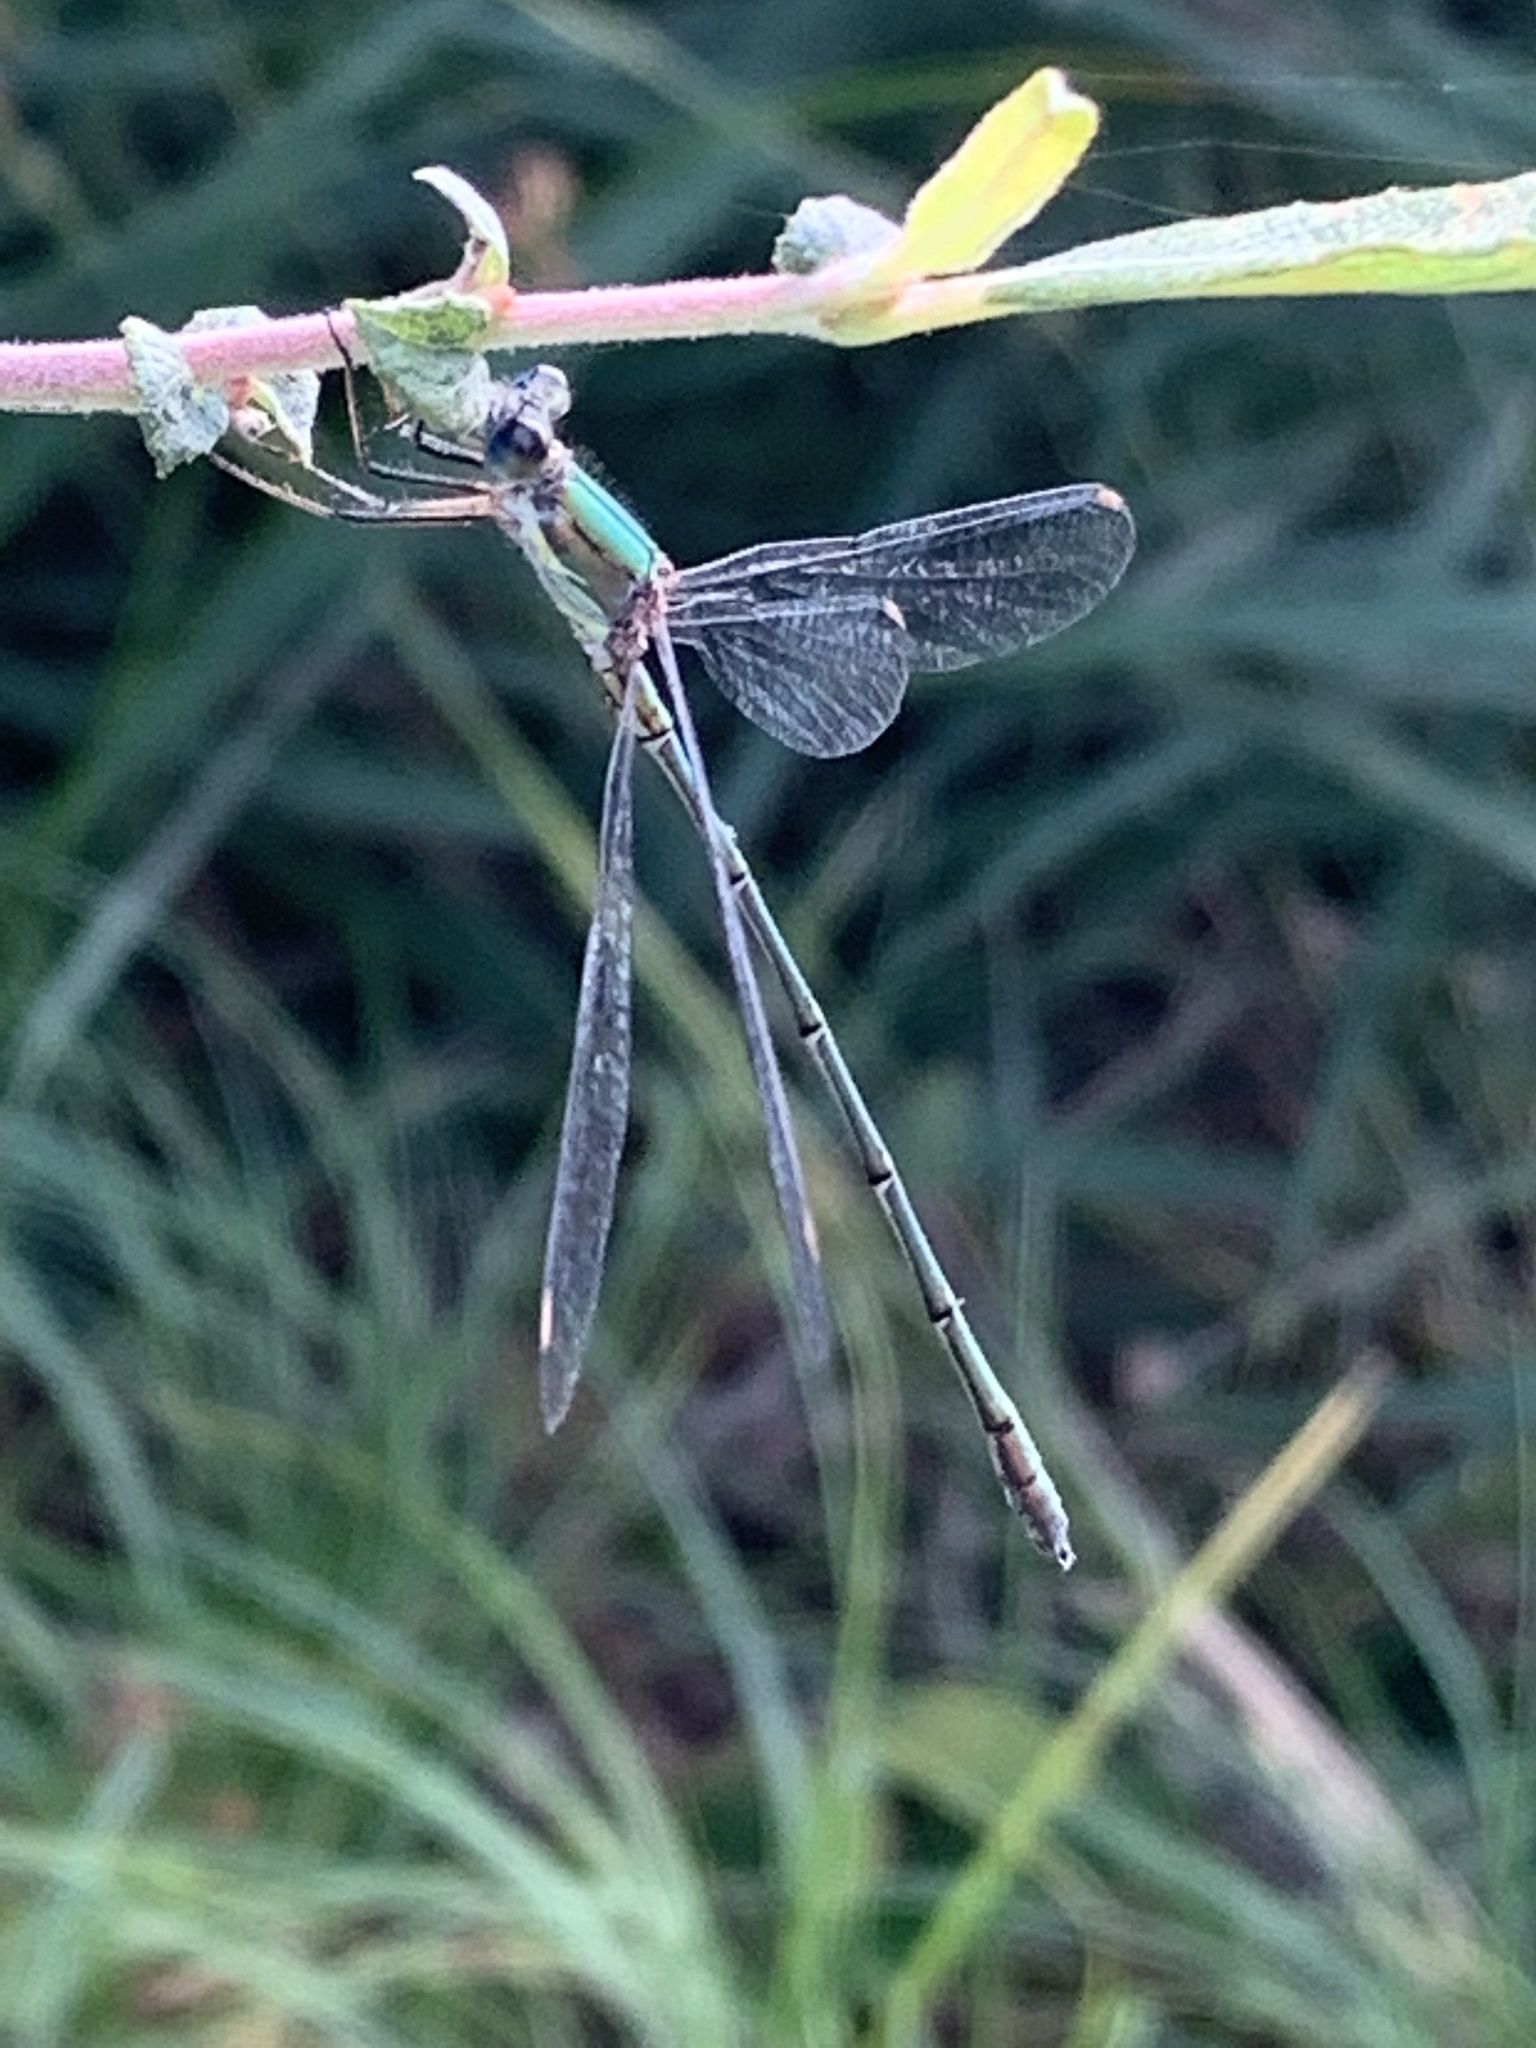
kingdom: Animalia
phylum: Arthropoda
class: Insecta
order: Odonata
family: Lestidae
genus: Chalcolestes
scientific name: Chalcolestes viridis
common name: Green emerald damselfly
